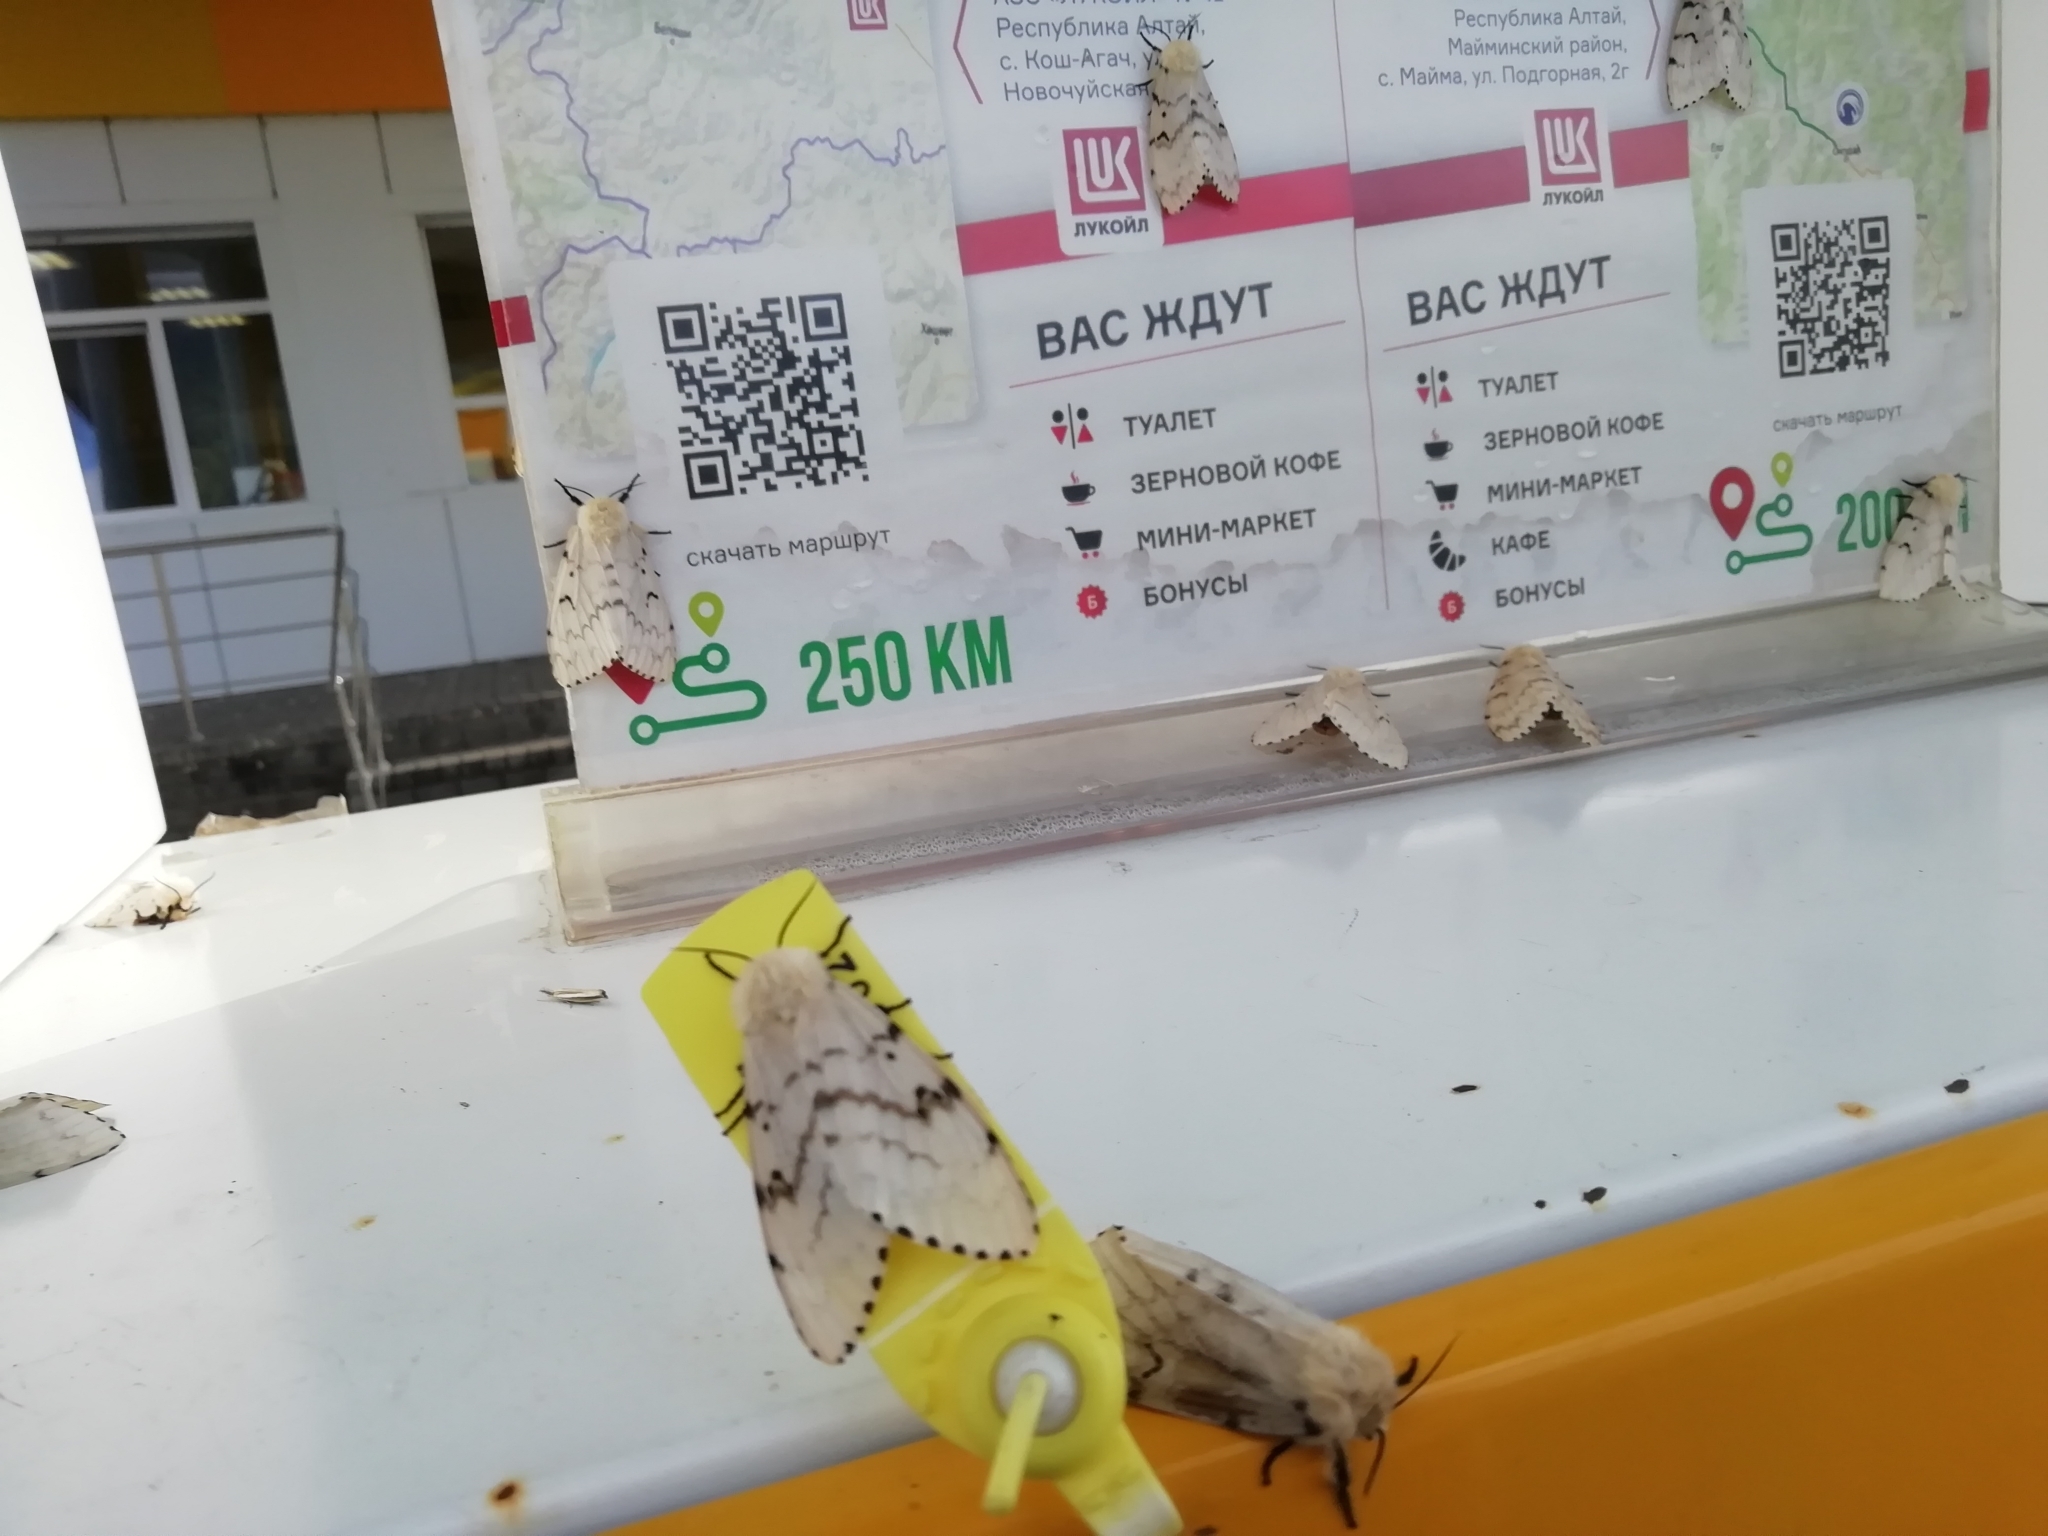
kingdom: Animalia
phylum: Arthropoda
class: Insecta
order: Lepidoptera
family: Erebidae
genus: Lymantria
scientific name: Lymantria dispar
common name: Gypsy moth
